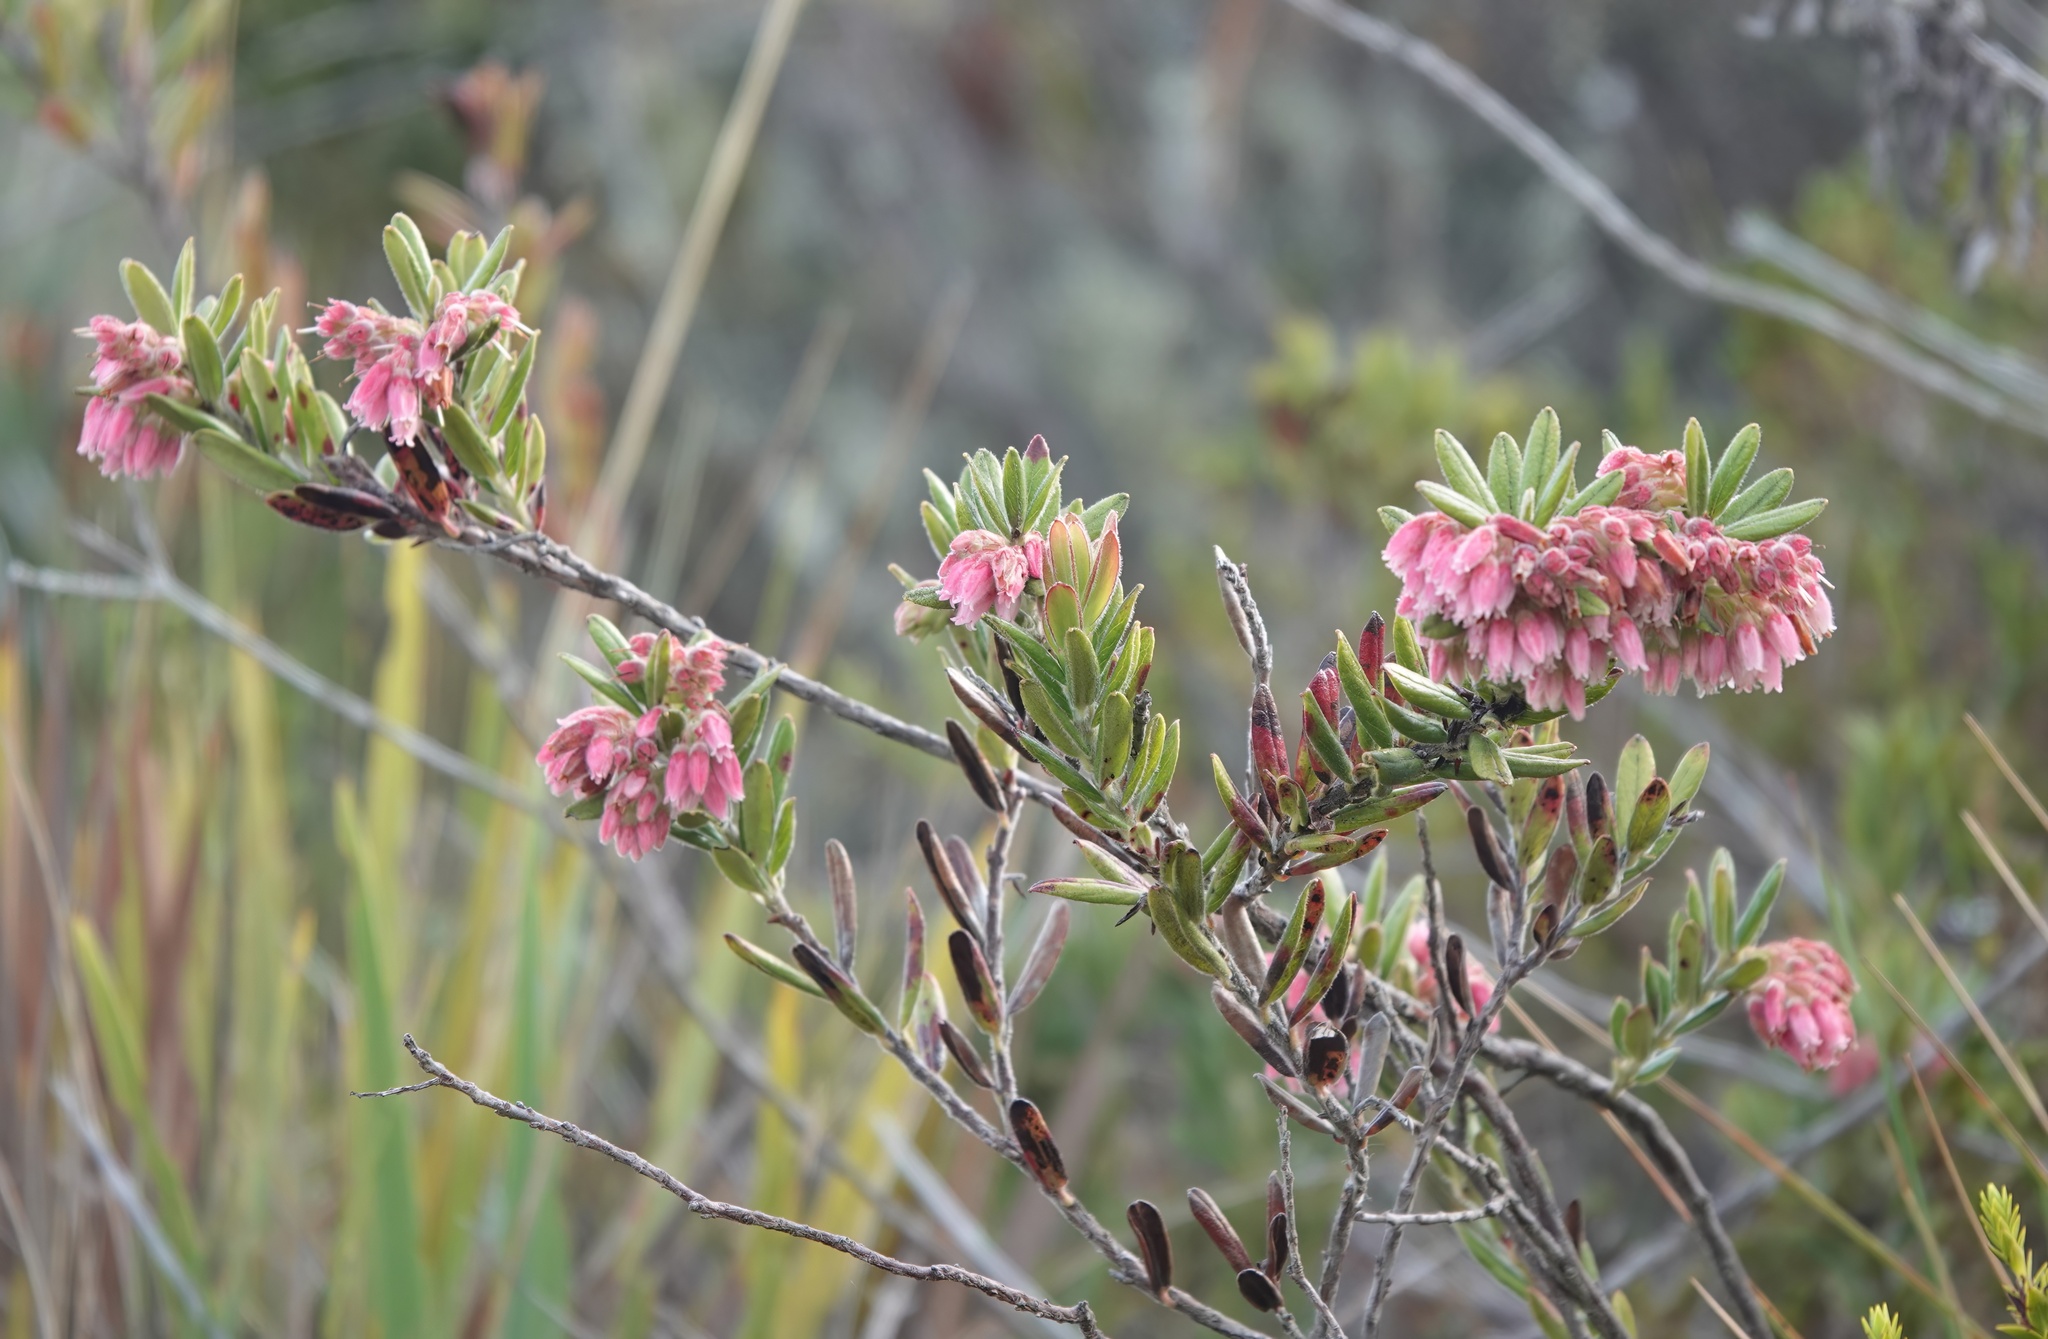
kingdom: Plantae
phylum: Tracheophyta
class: Magnoliopsida
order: Ericales
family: Ericaceae
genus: Gaylussacia
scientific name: Gaylussacia buxifolia
